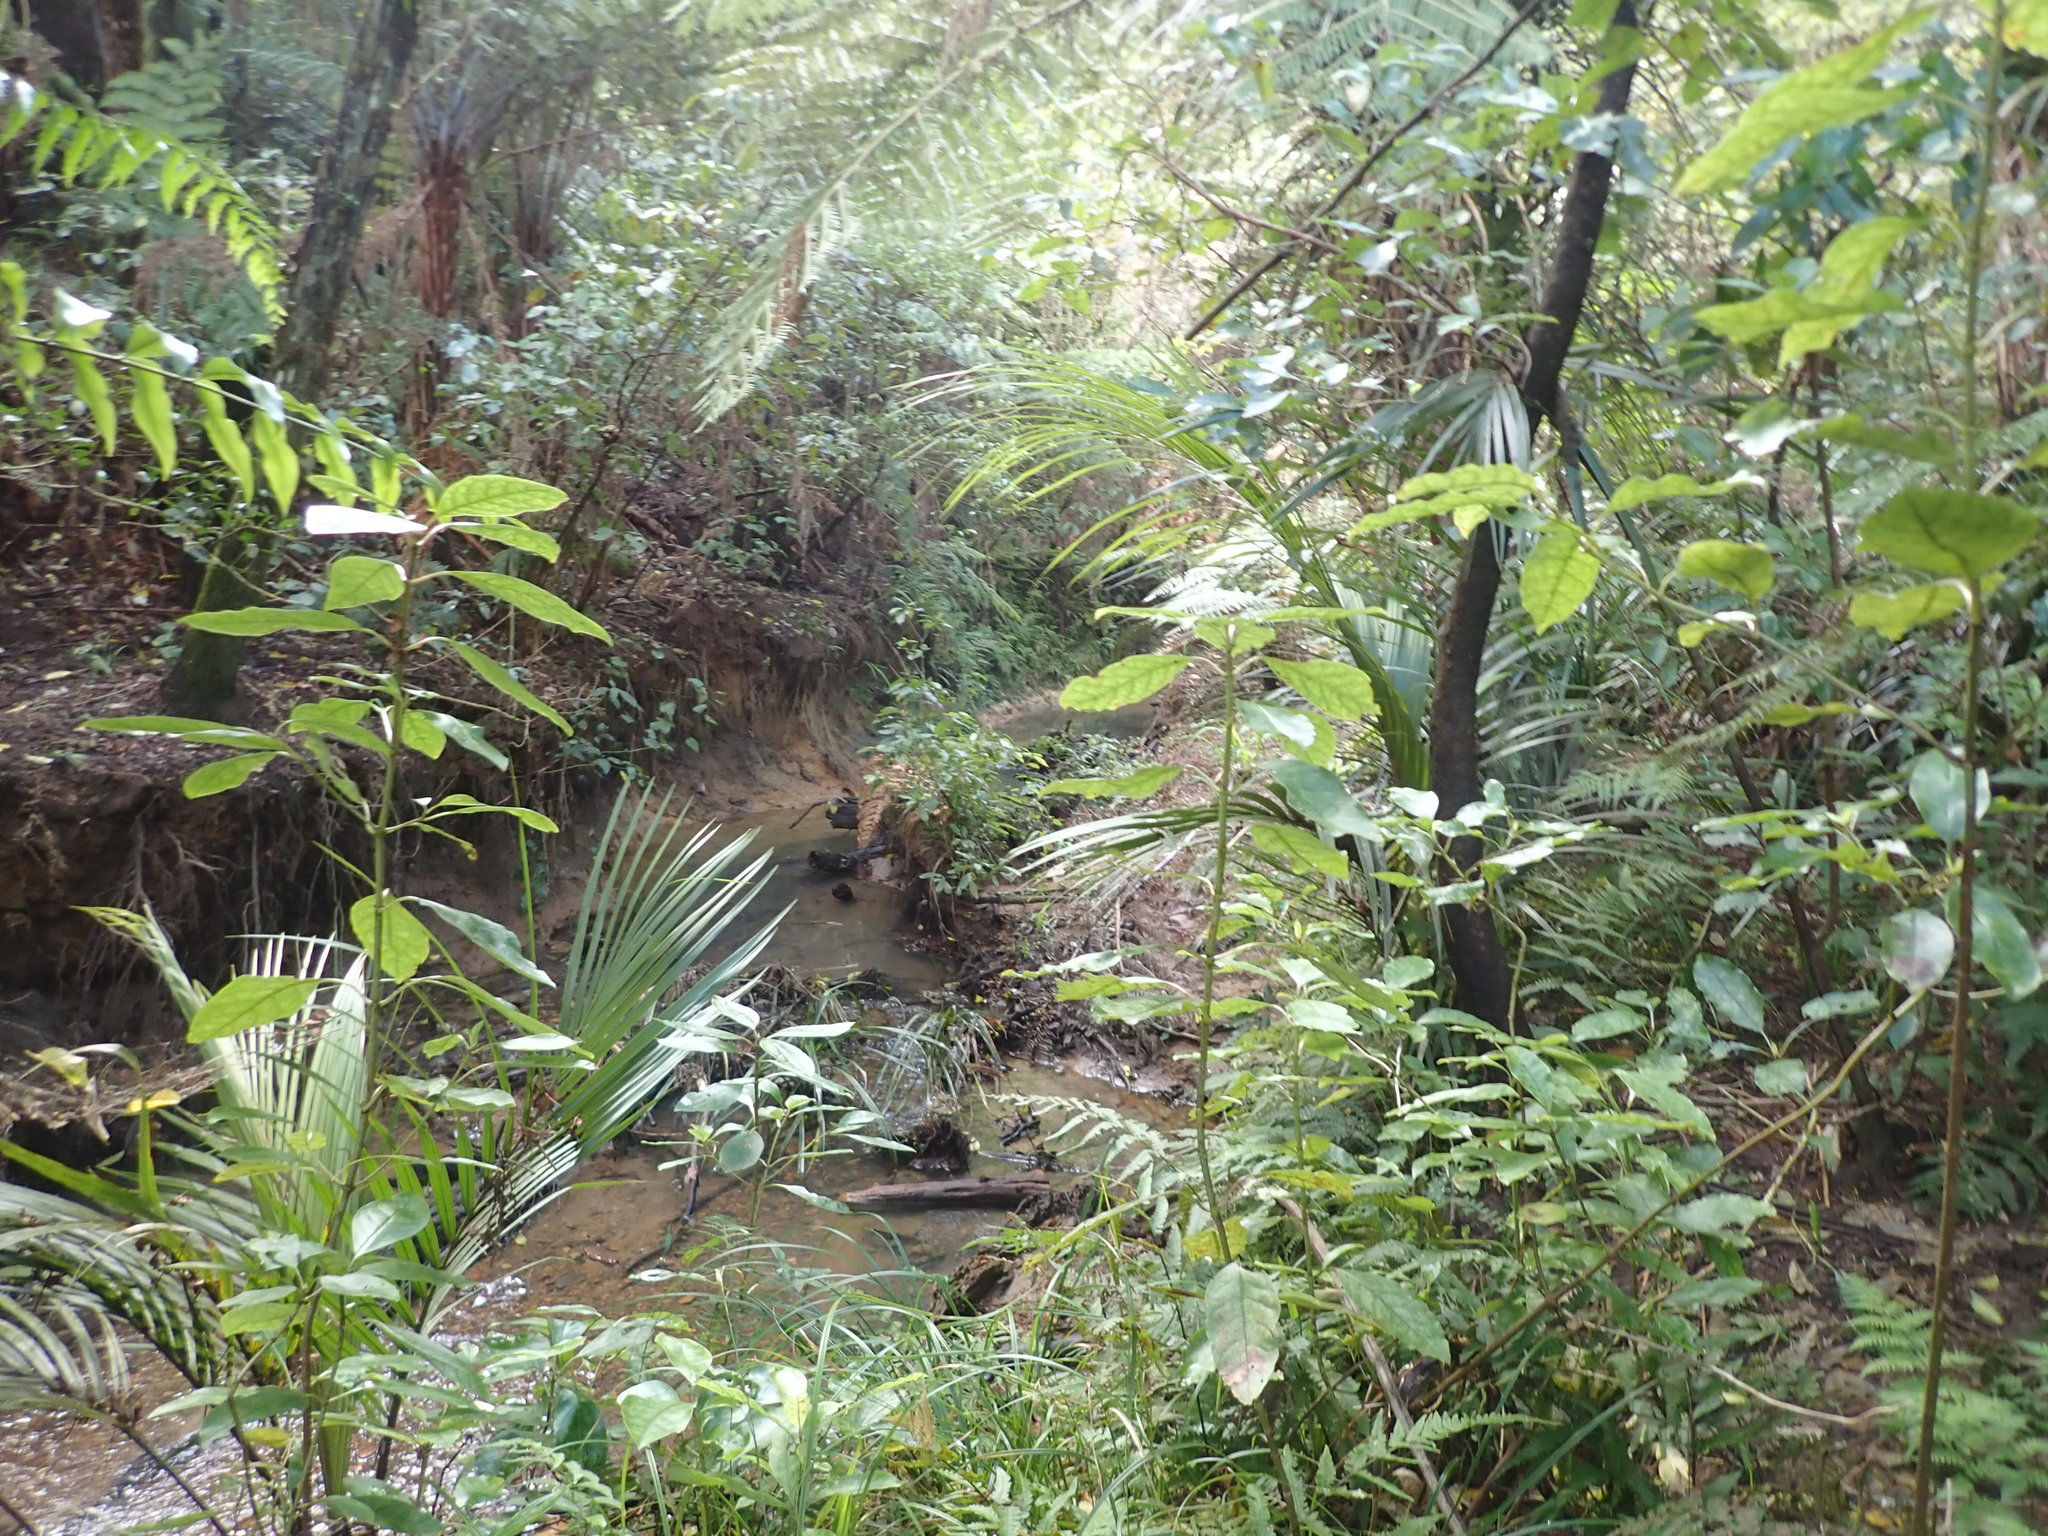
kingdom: Plantae
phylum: Tracheophyta
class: Magnoliopsida
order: Gentianales
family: Rubiaceae
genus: Coprosma
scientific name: Coprosma autumnalis
